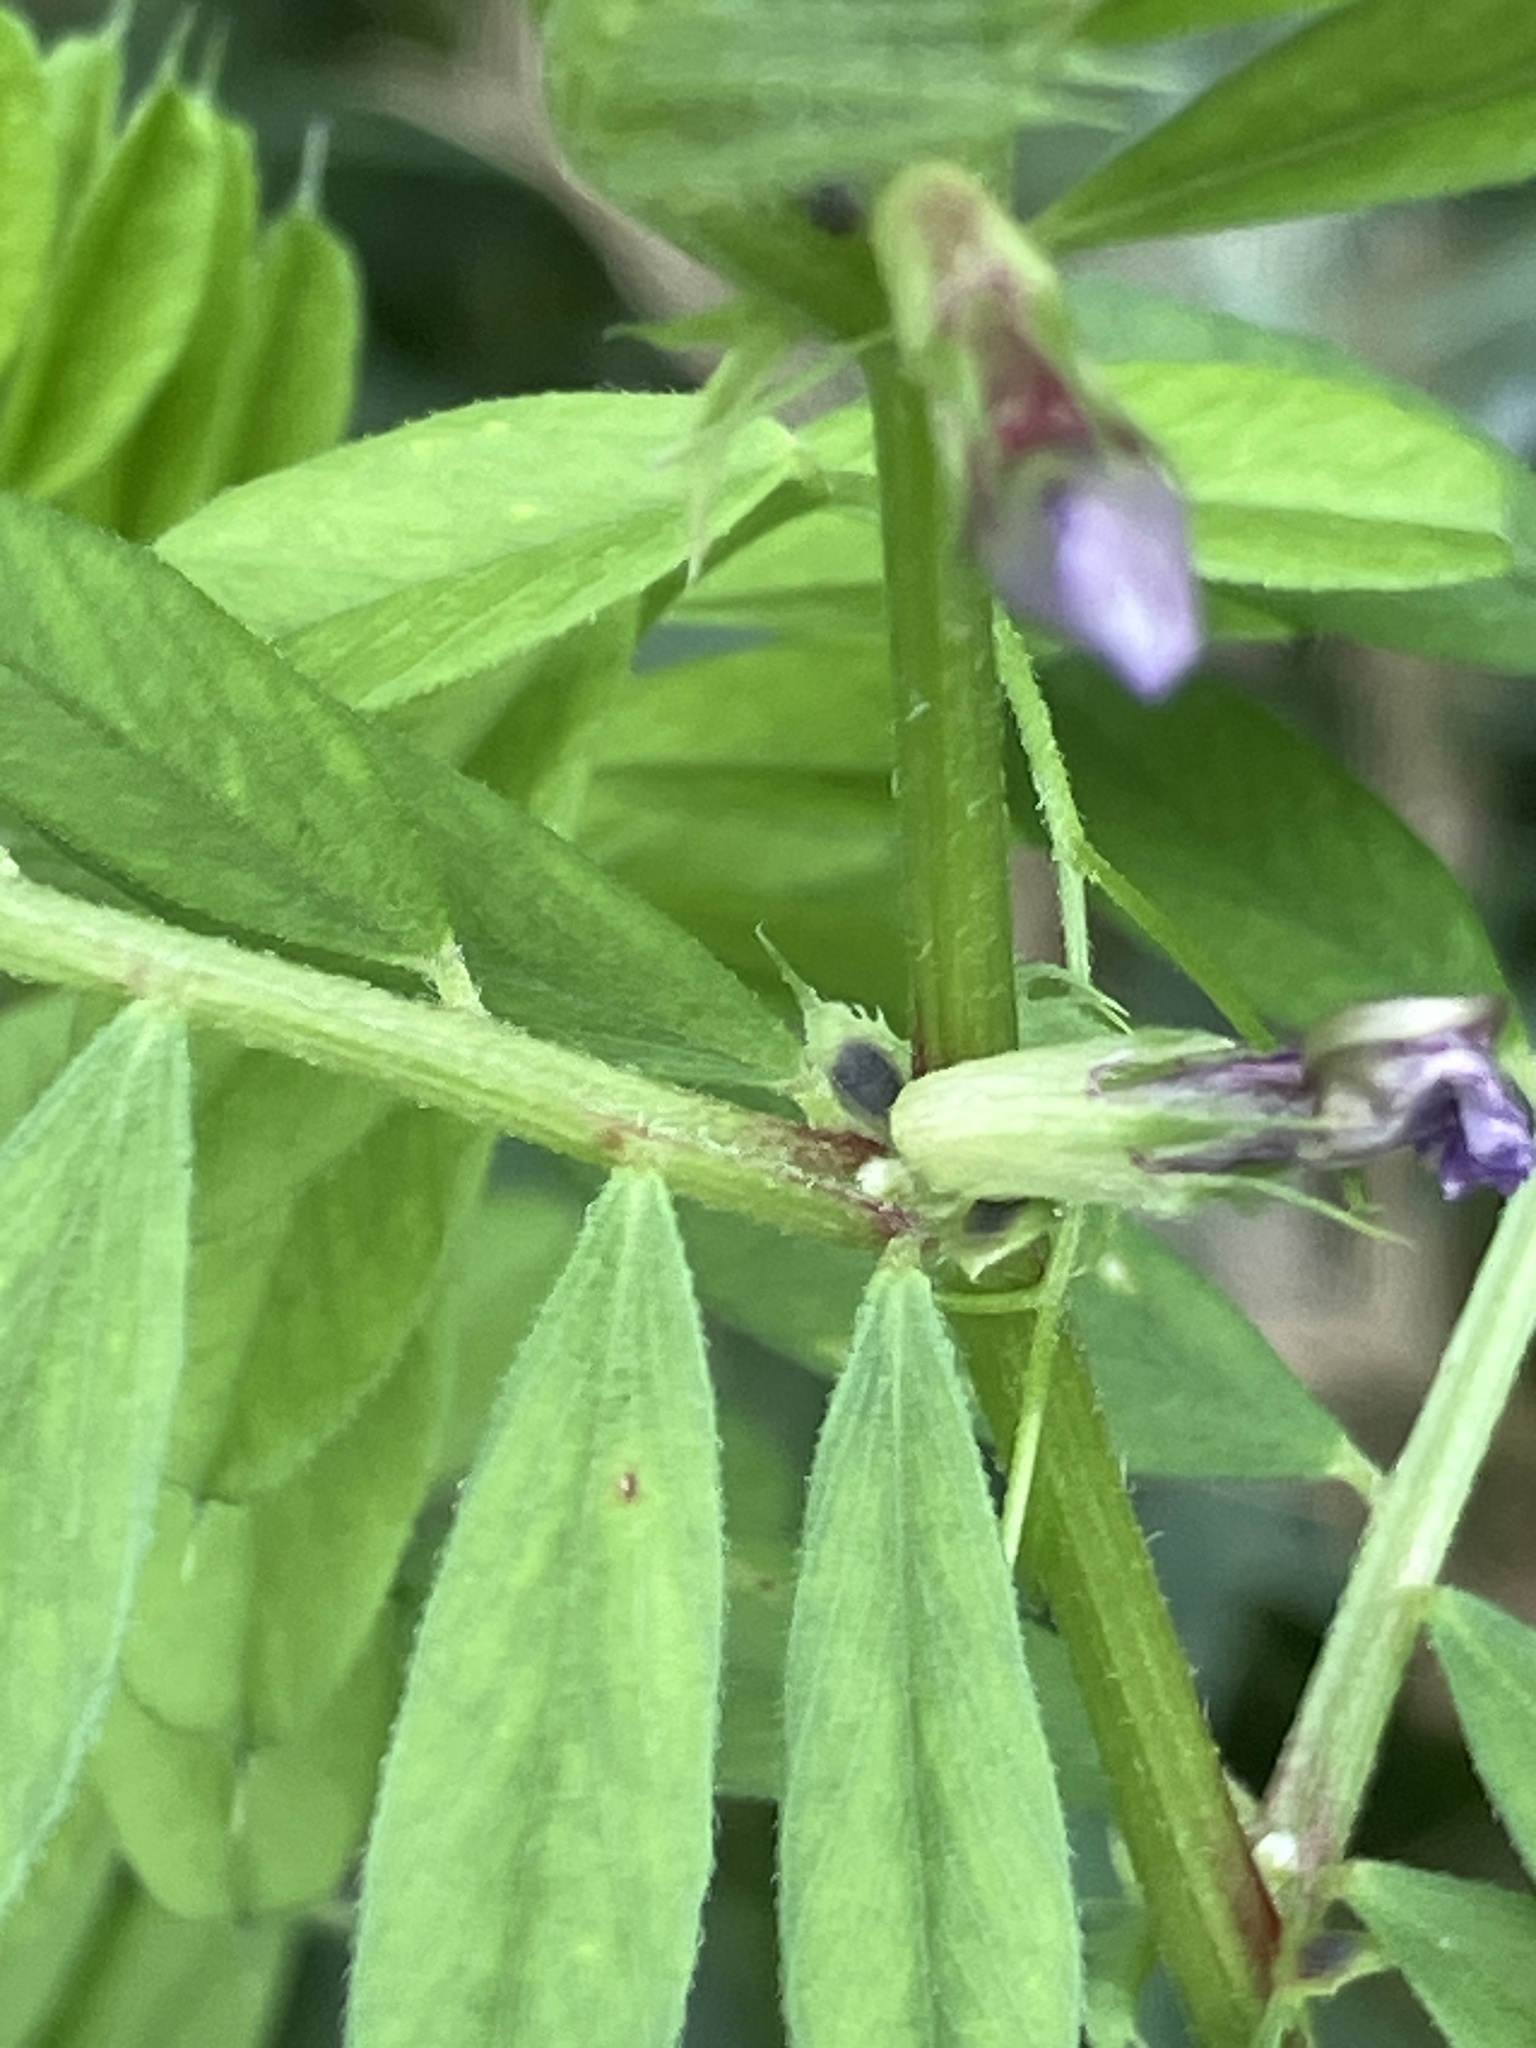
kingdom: Plantae
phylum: Tracheophyta
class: Magnoliopsida
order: Fabales
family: Fabaceae
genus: Vicia
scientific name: Vicia sativa
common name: Garden vetch
